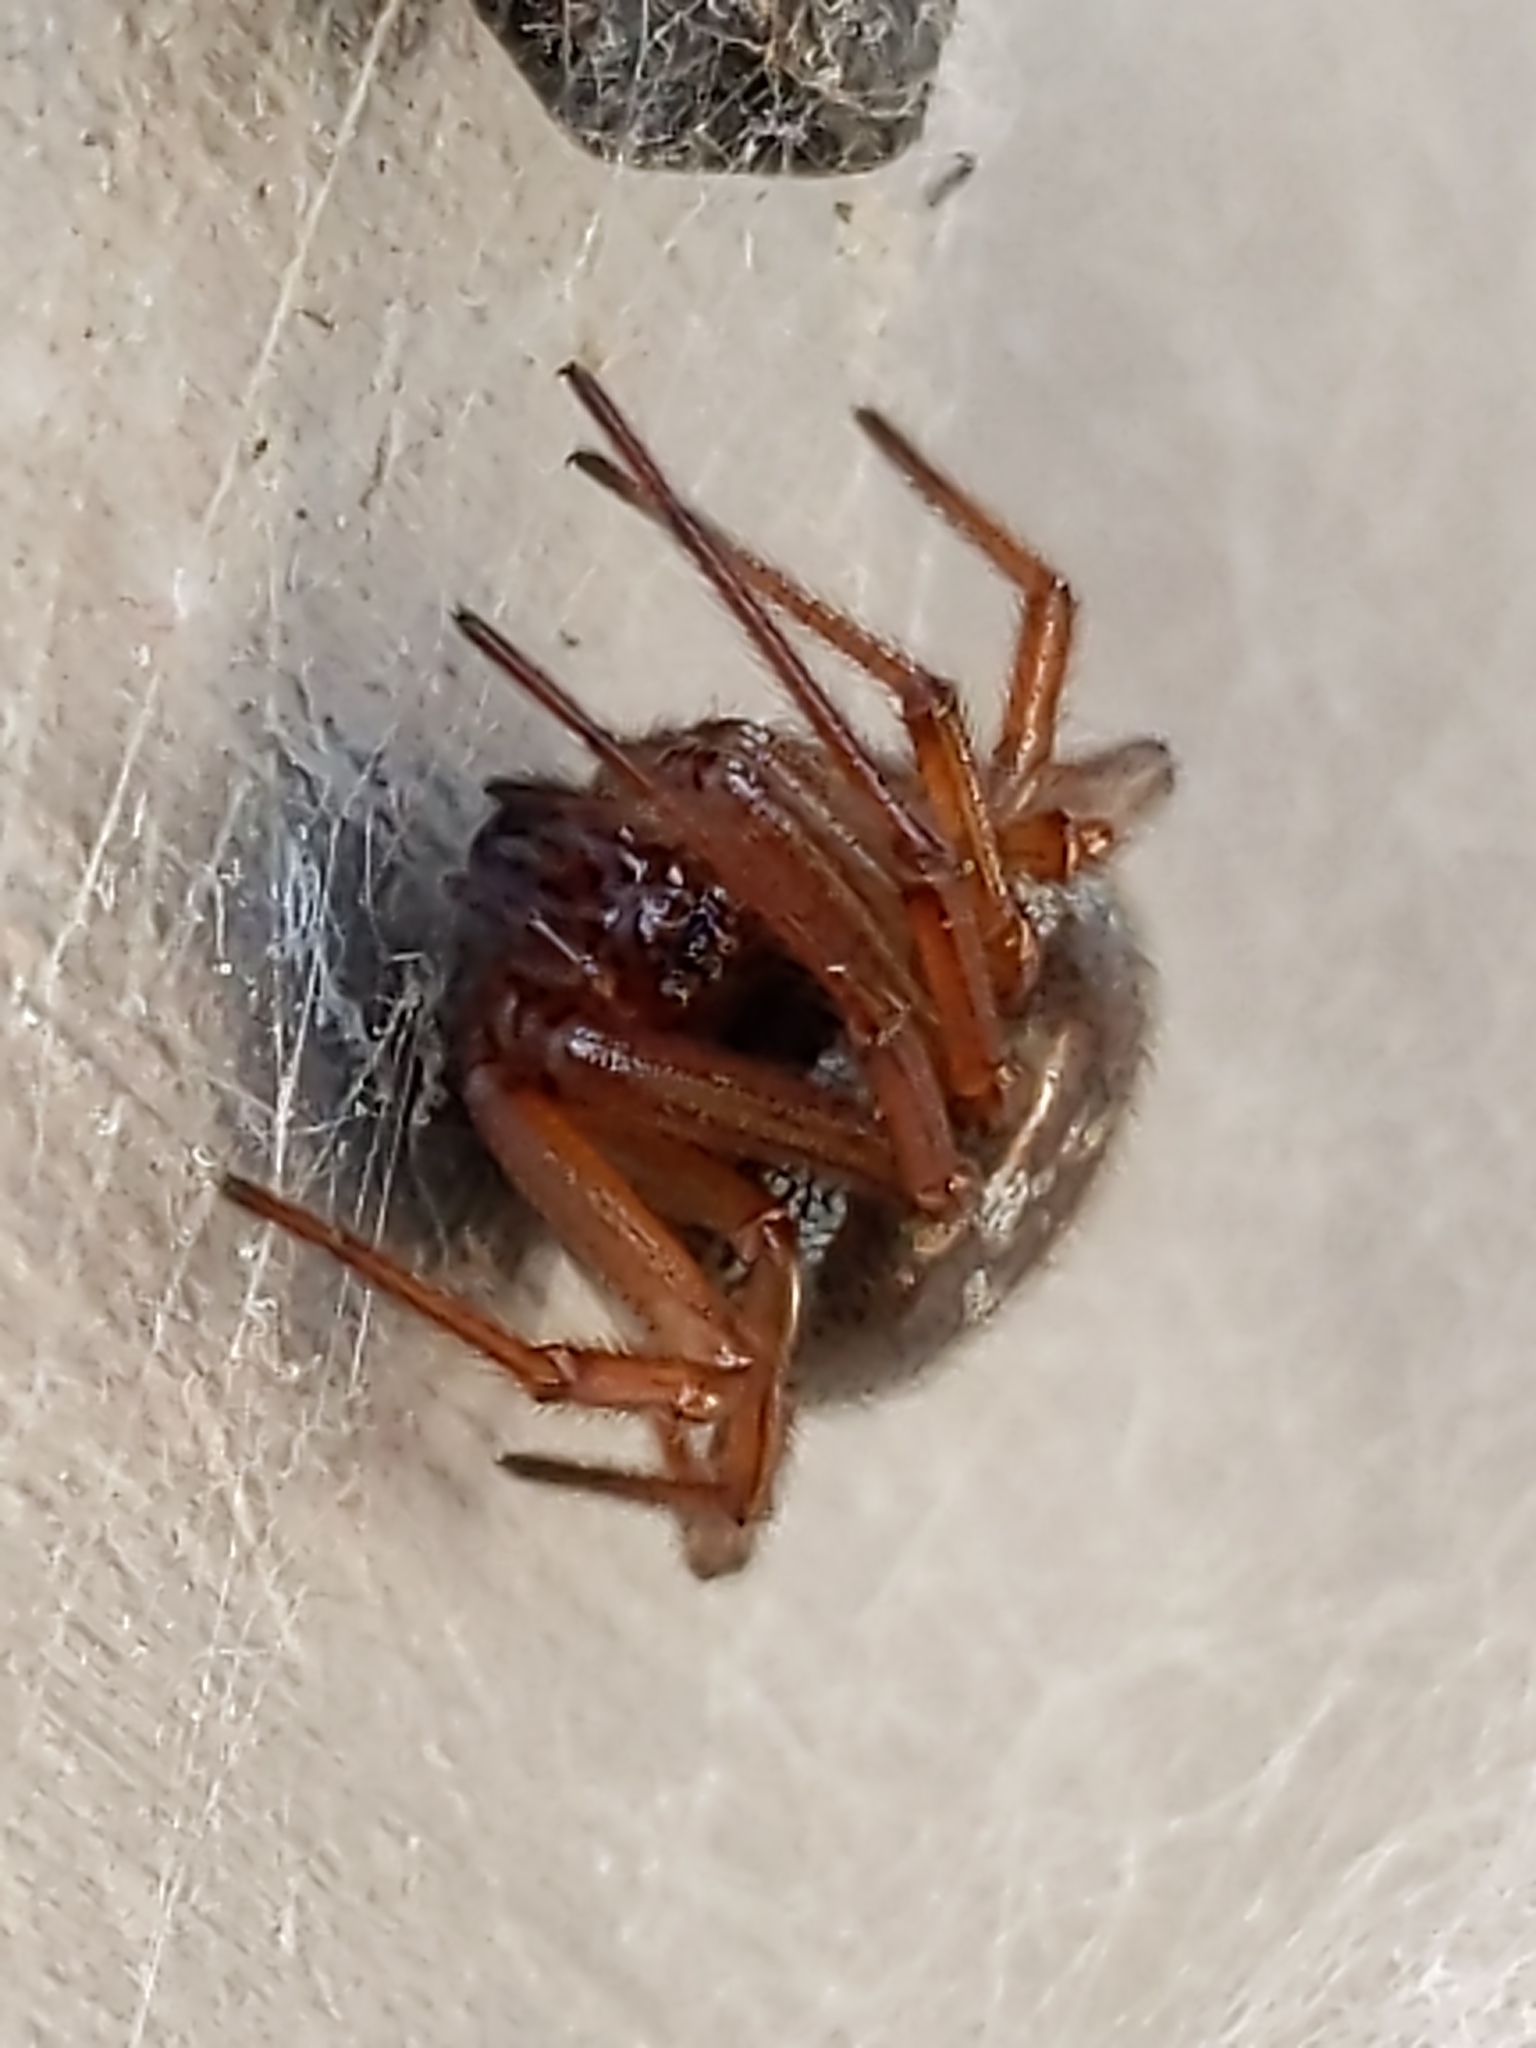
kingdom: Animalia
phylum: Arthropoda
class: Arachnida
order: Araneae
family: Theridiidae
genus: Steatoda
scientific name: Steatoda nobilis
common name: Cobweb weaver
